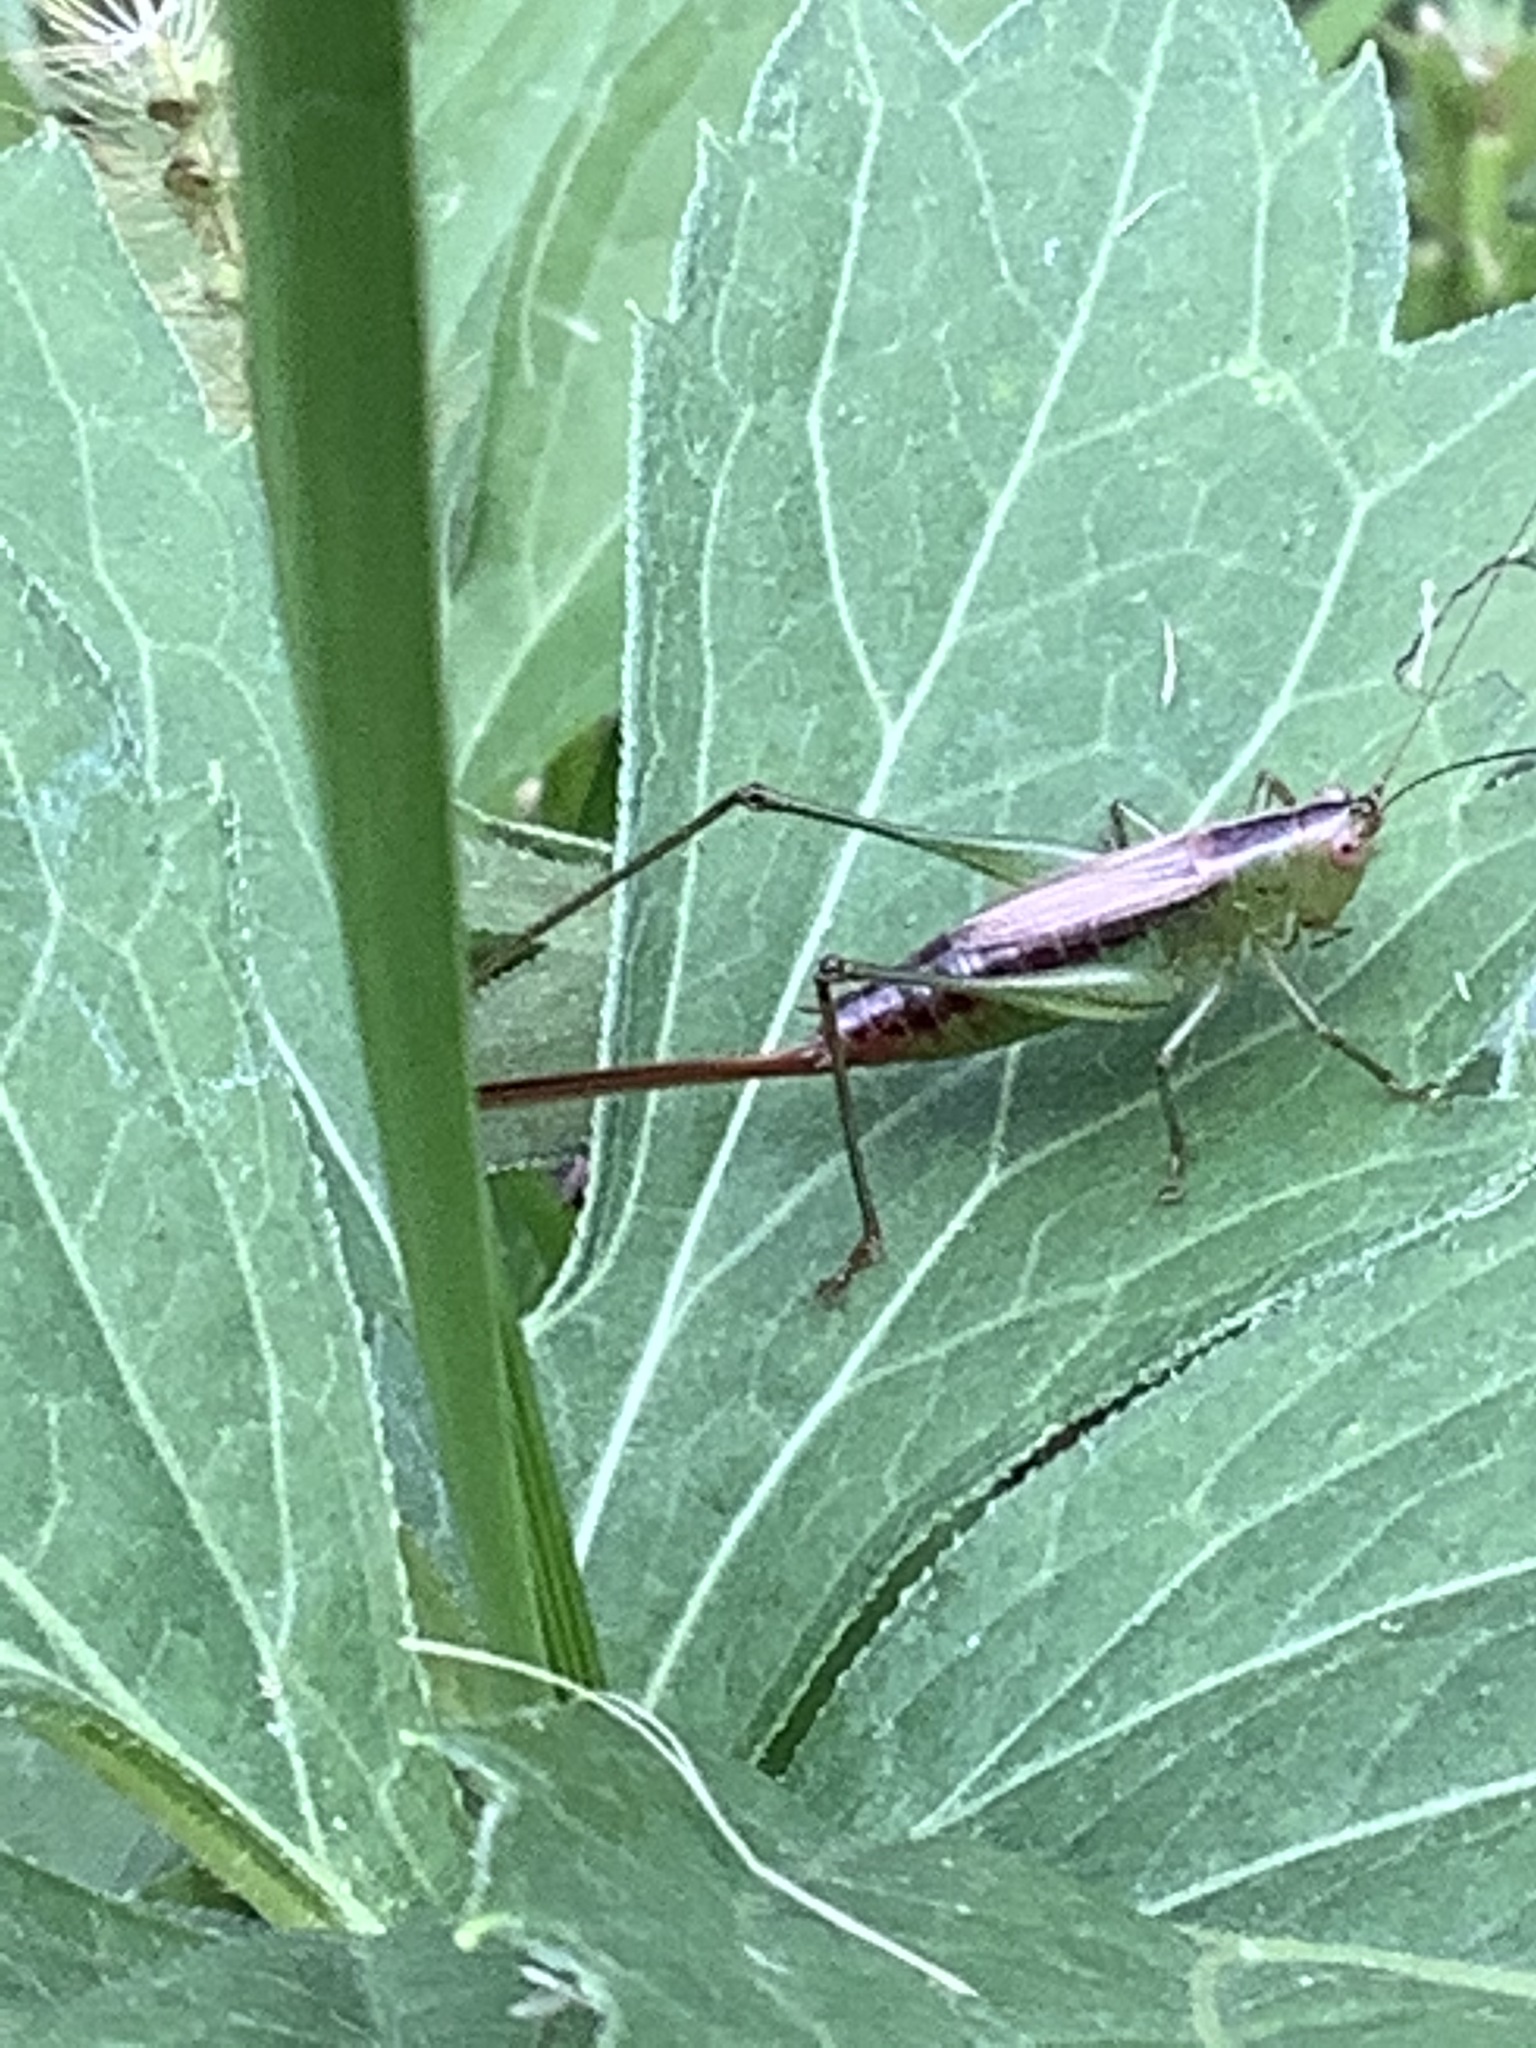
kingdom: Animalia
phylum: Arthropoda
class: Insecta
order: Orthoptera
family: Tettigoniidae
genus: Conocephalus
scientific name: Conocephalus brevipennis
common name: Short-winged meadow katydid
